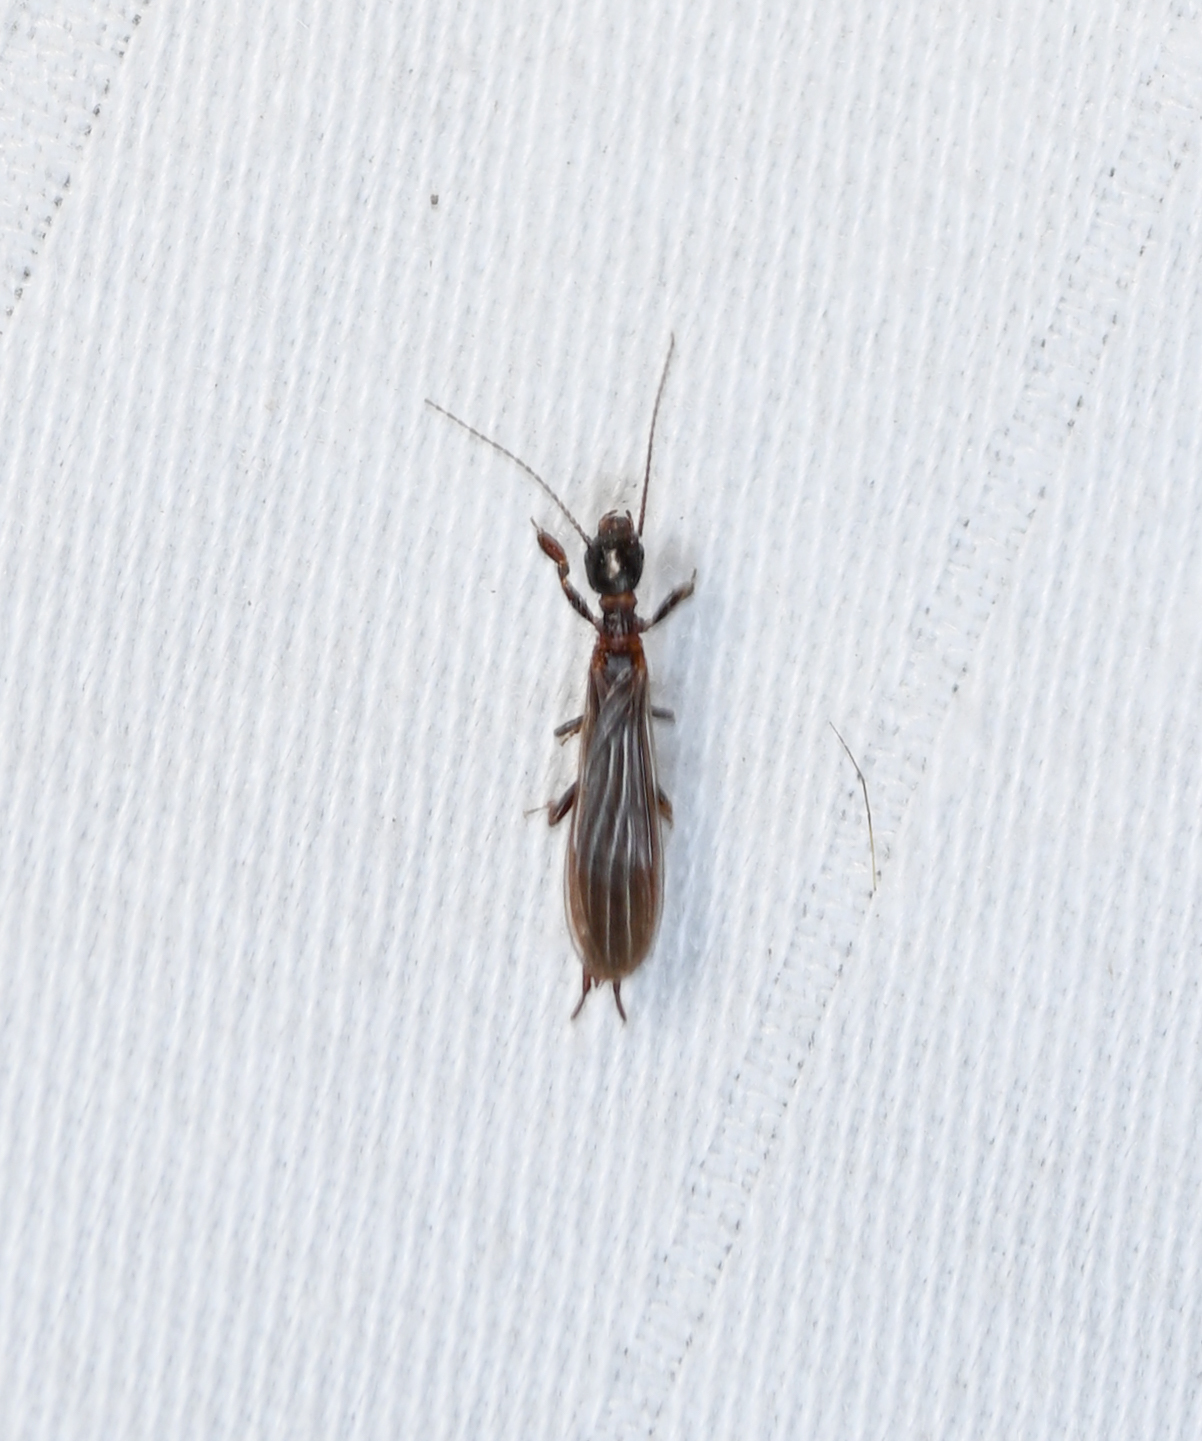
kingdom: Animalia
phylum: Arthropoda
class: Insecta
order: Embioptera
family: Oligotomidae
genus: Oligotoma
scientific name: Oligotoma nigra
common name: Black webspinner
